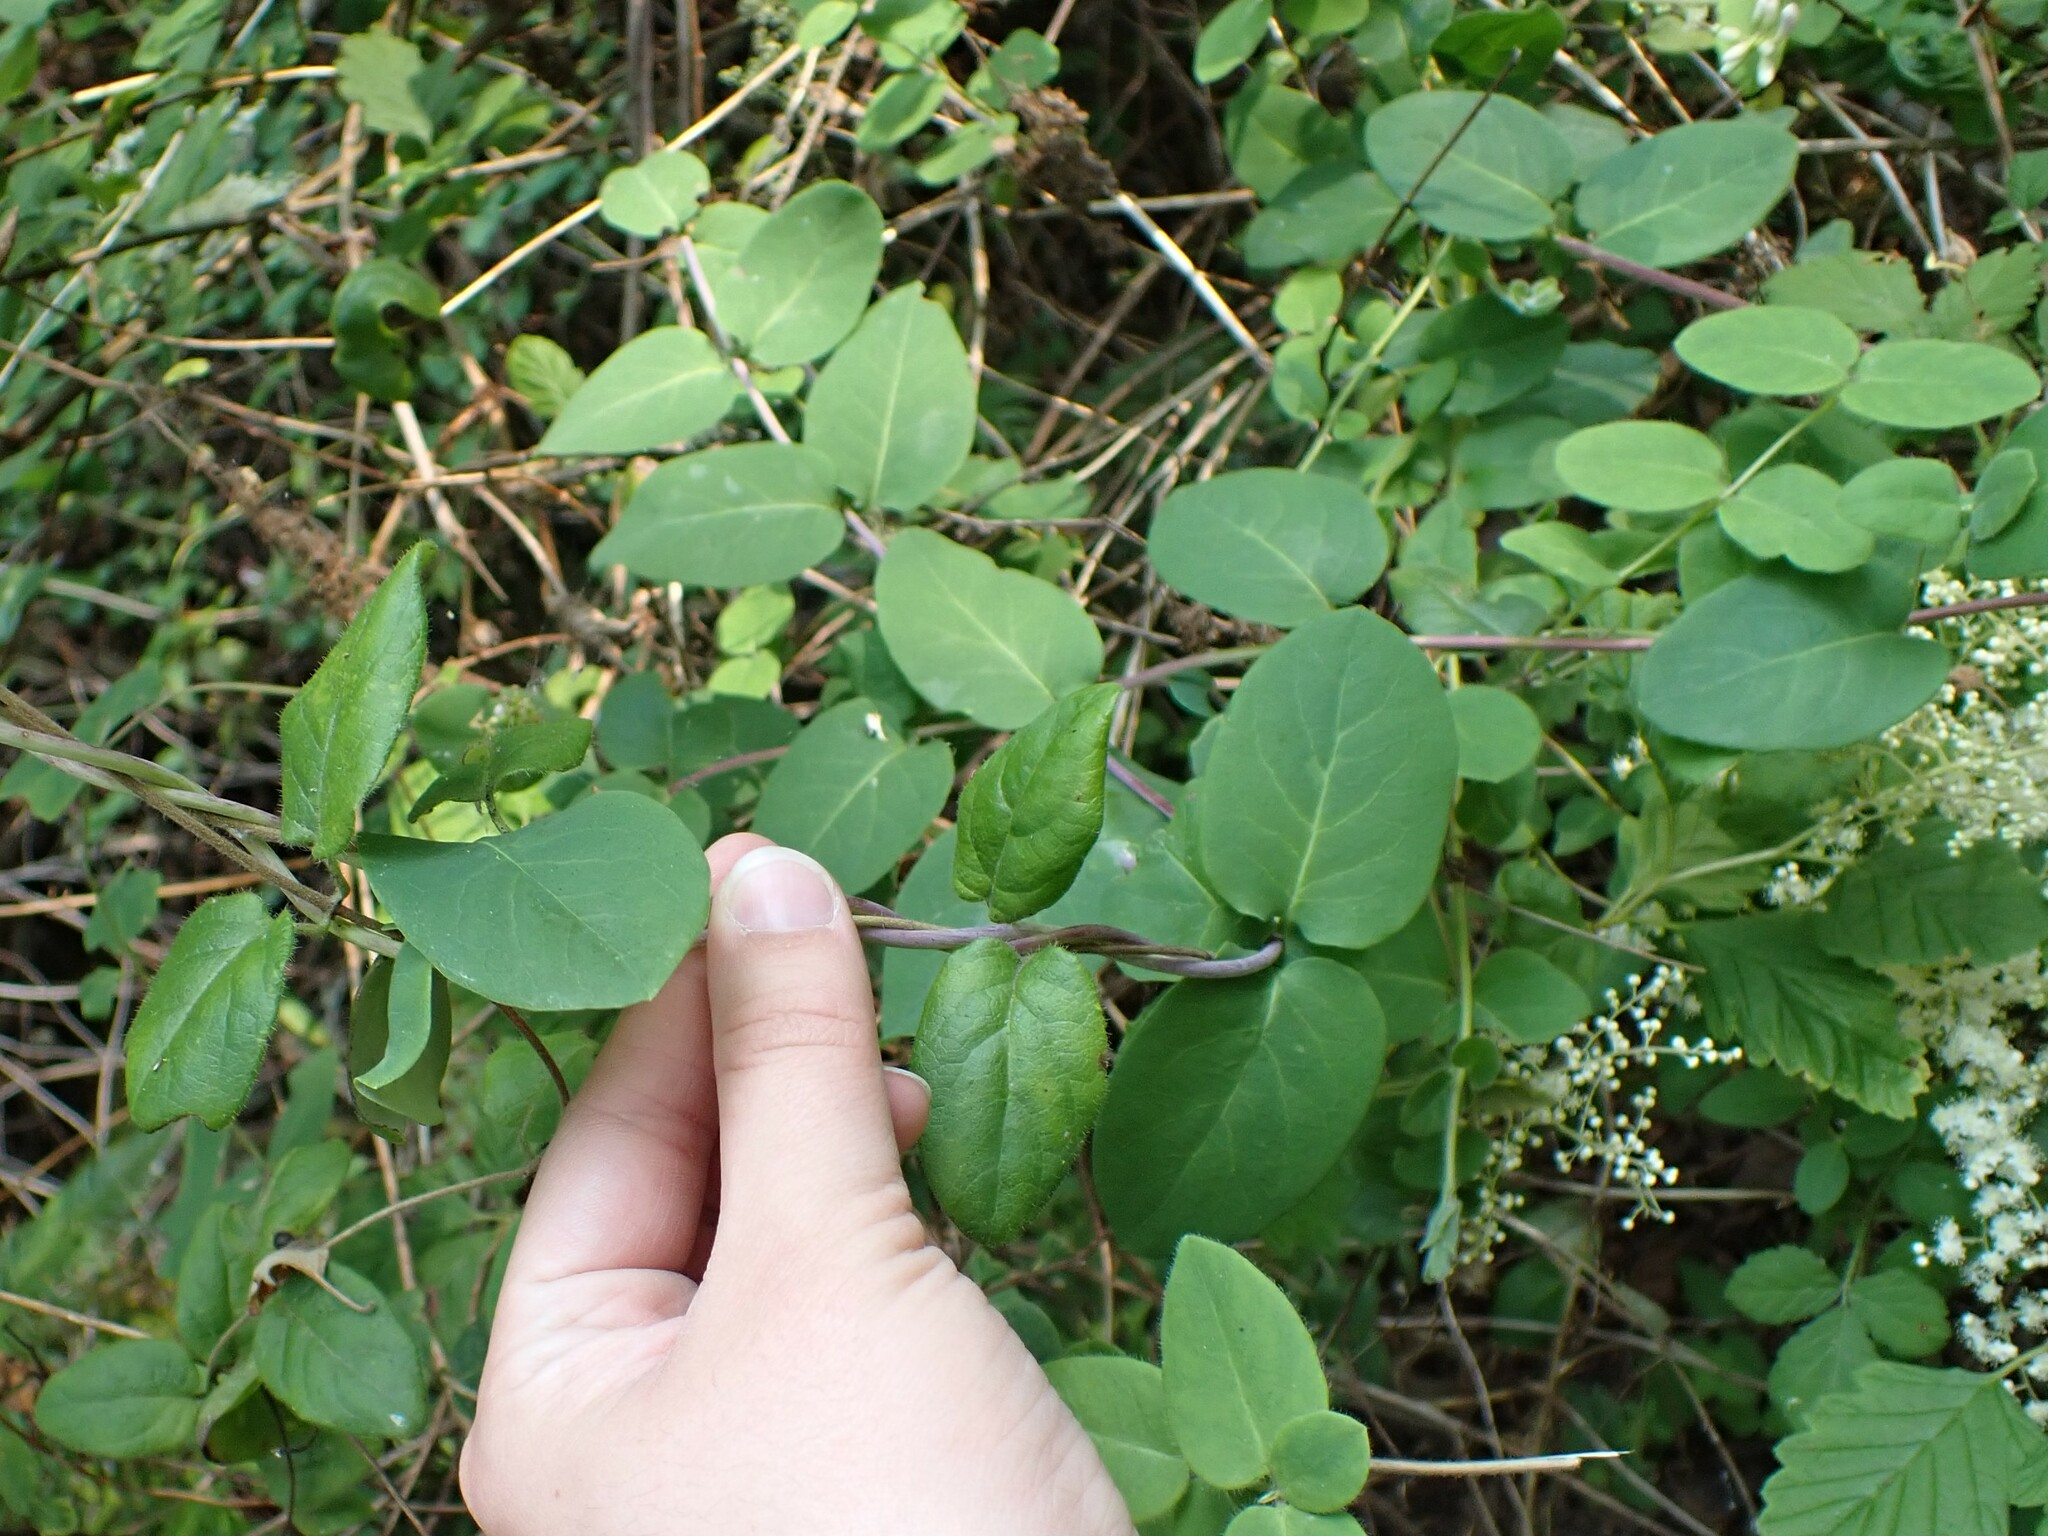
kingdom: Plantae
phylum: Tracheophyta
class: Magnoliopsida
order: Dipsacales
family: Caprifoliaceae
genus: Lonicera
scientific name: Lonicera hispidula
